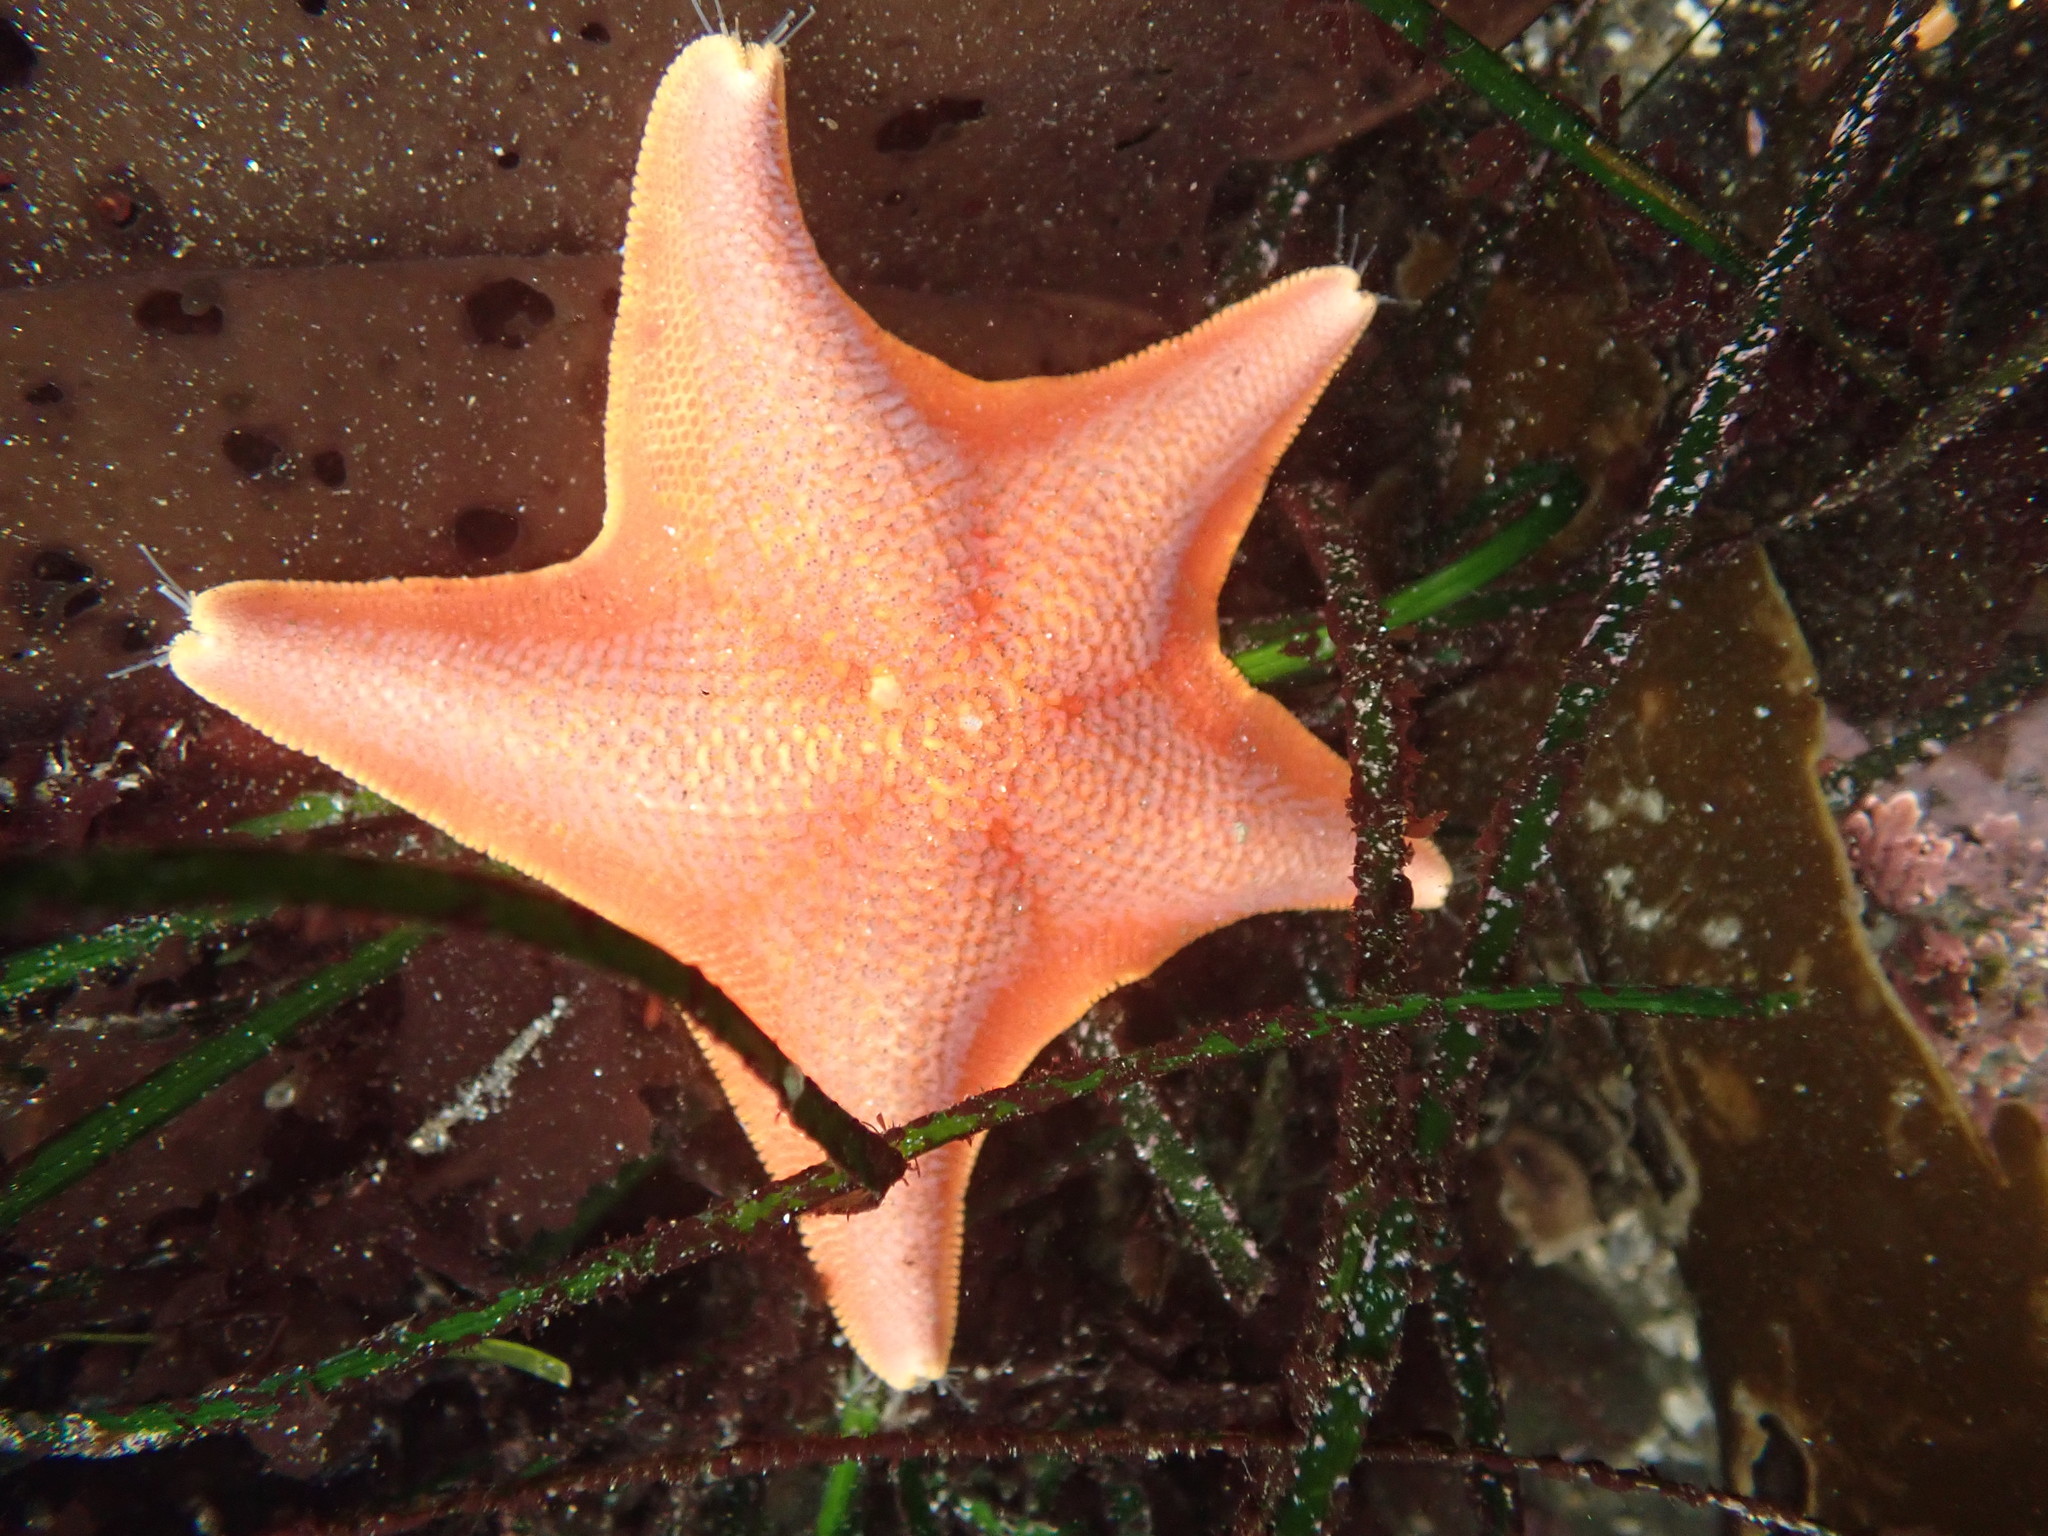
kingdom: Animalia
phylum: Echinodermata
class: Asteroidea
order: Valvatida
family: Asterinidae
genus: Patiria
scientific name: Patiria miniata
